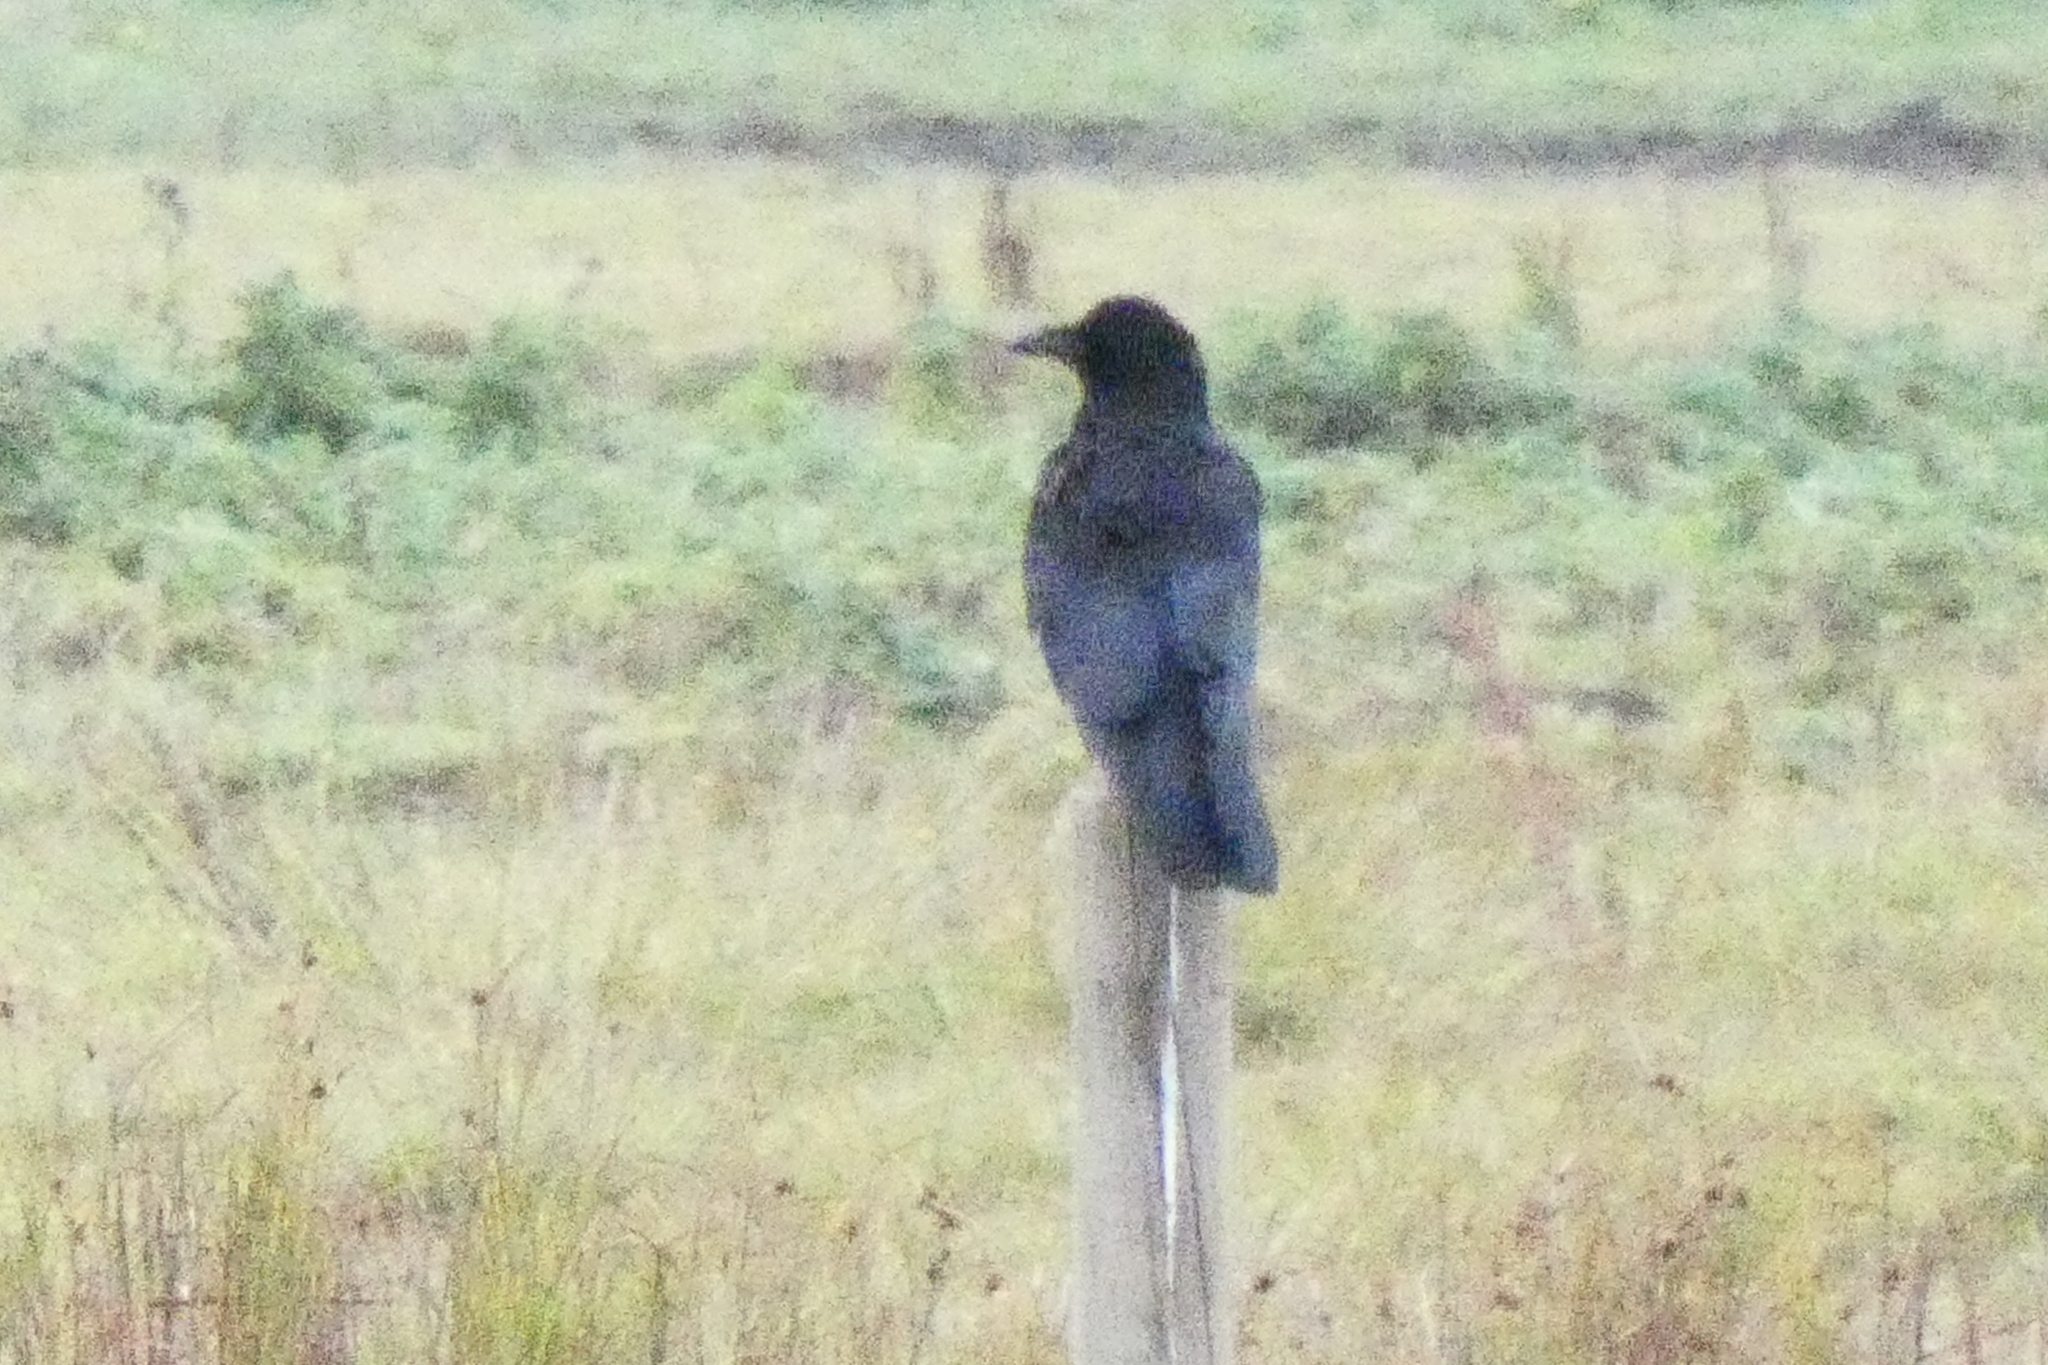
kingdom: Animalia
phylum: Chordata
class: Aves
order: Passeriformes
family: Corvidae
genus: Corvus
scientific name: Corvus corone
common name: Carrion crow
